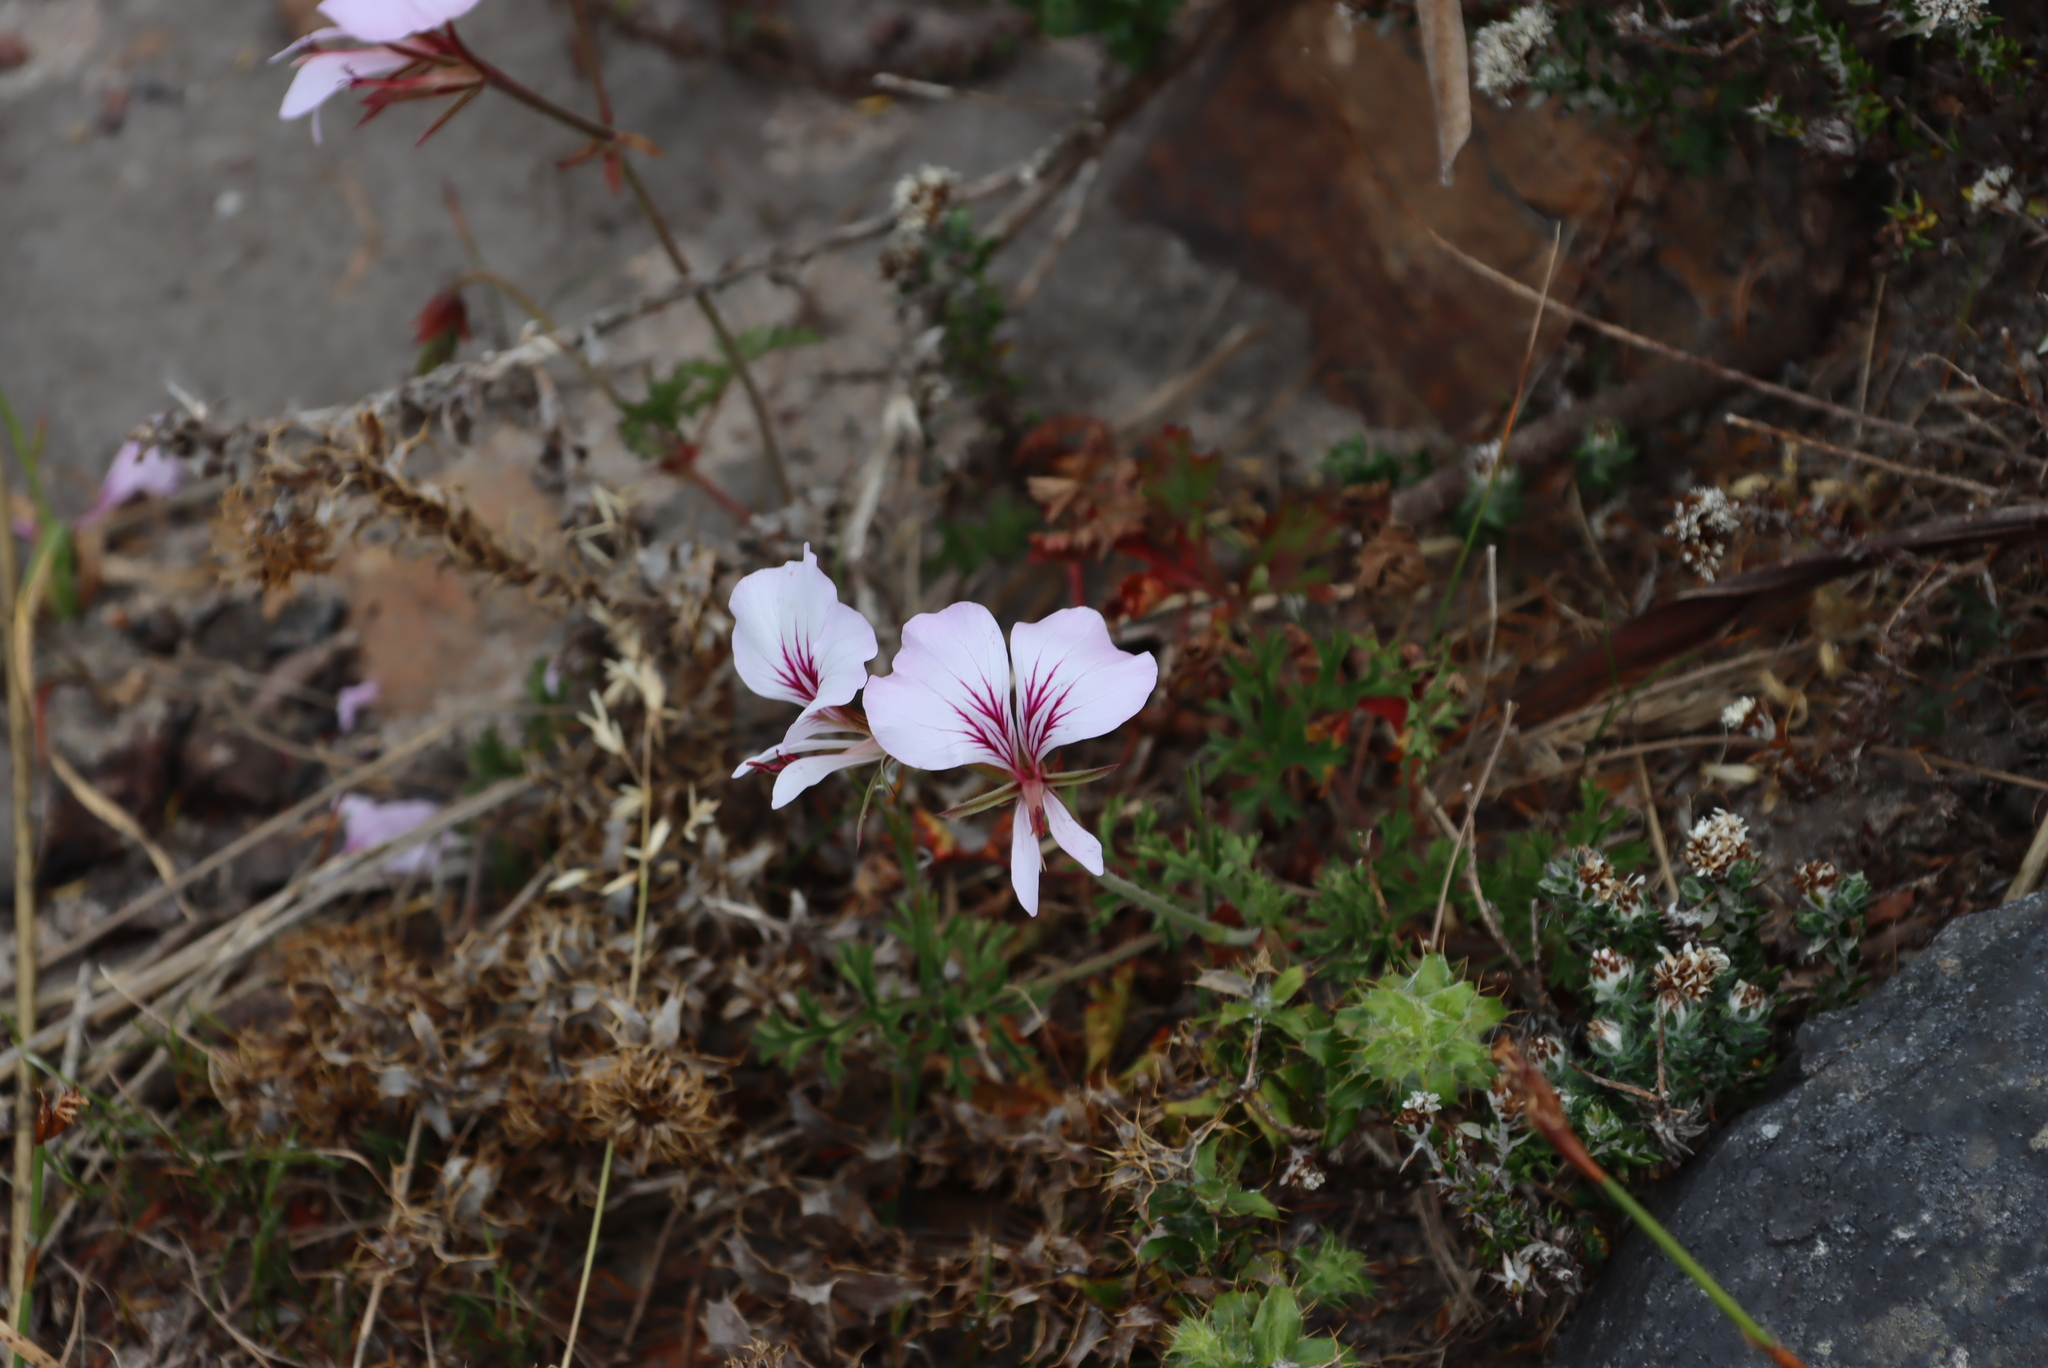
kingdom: Plantae
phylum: Tracheophyta
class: Magnoliopsida
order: Geraniales
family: Geraniaceae
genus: Pelargonium
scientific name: Pelargonium longicaule
